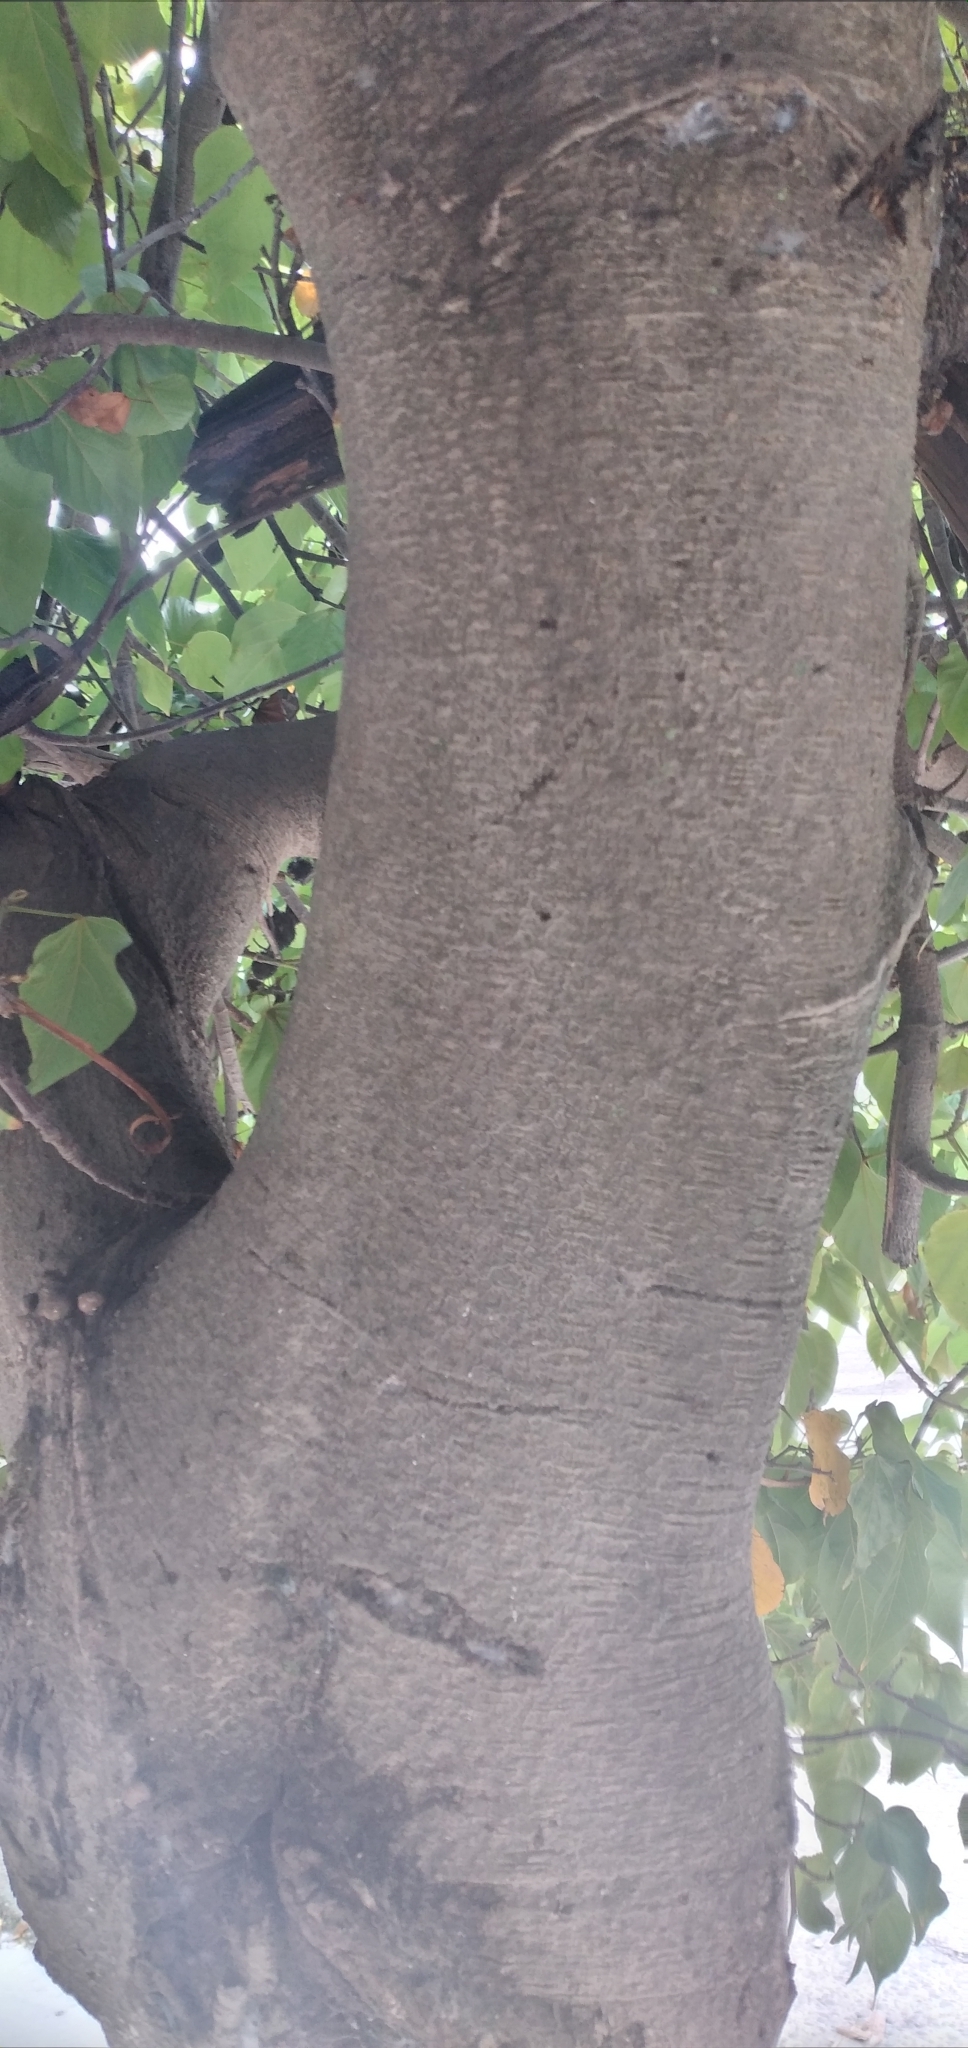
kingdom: Plantae
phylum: Tracheophyta
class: Magnoliopsida
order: Malvales
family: Bixaceae
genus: Bixa
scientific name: Bixa orellana
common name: Lipsticktree
